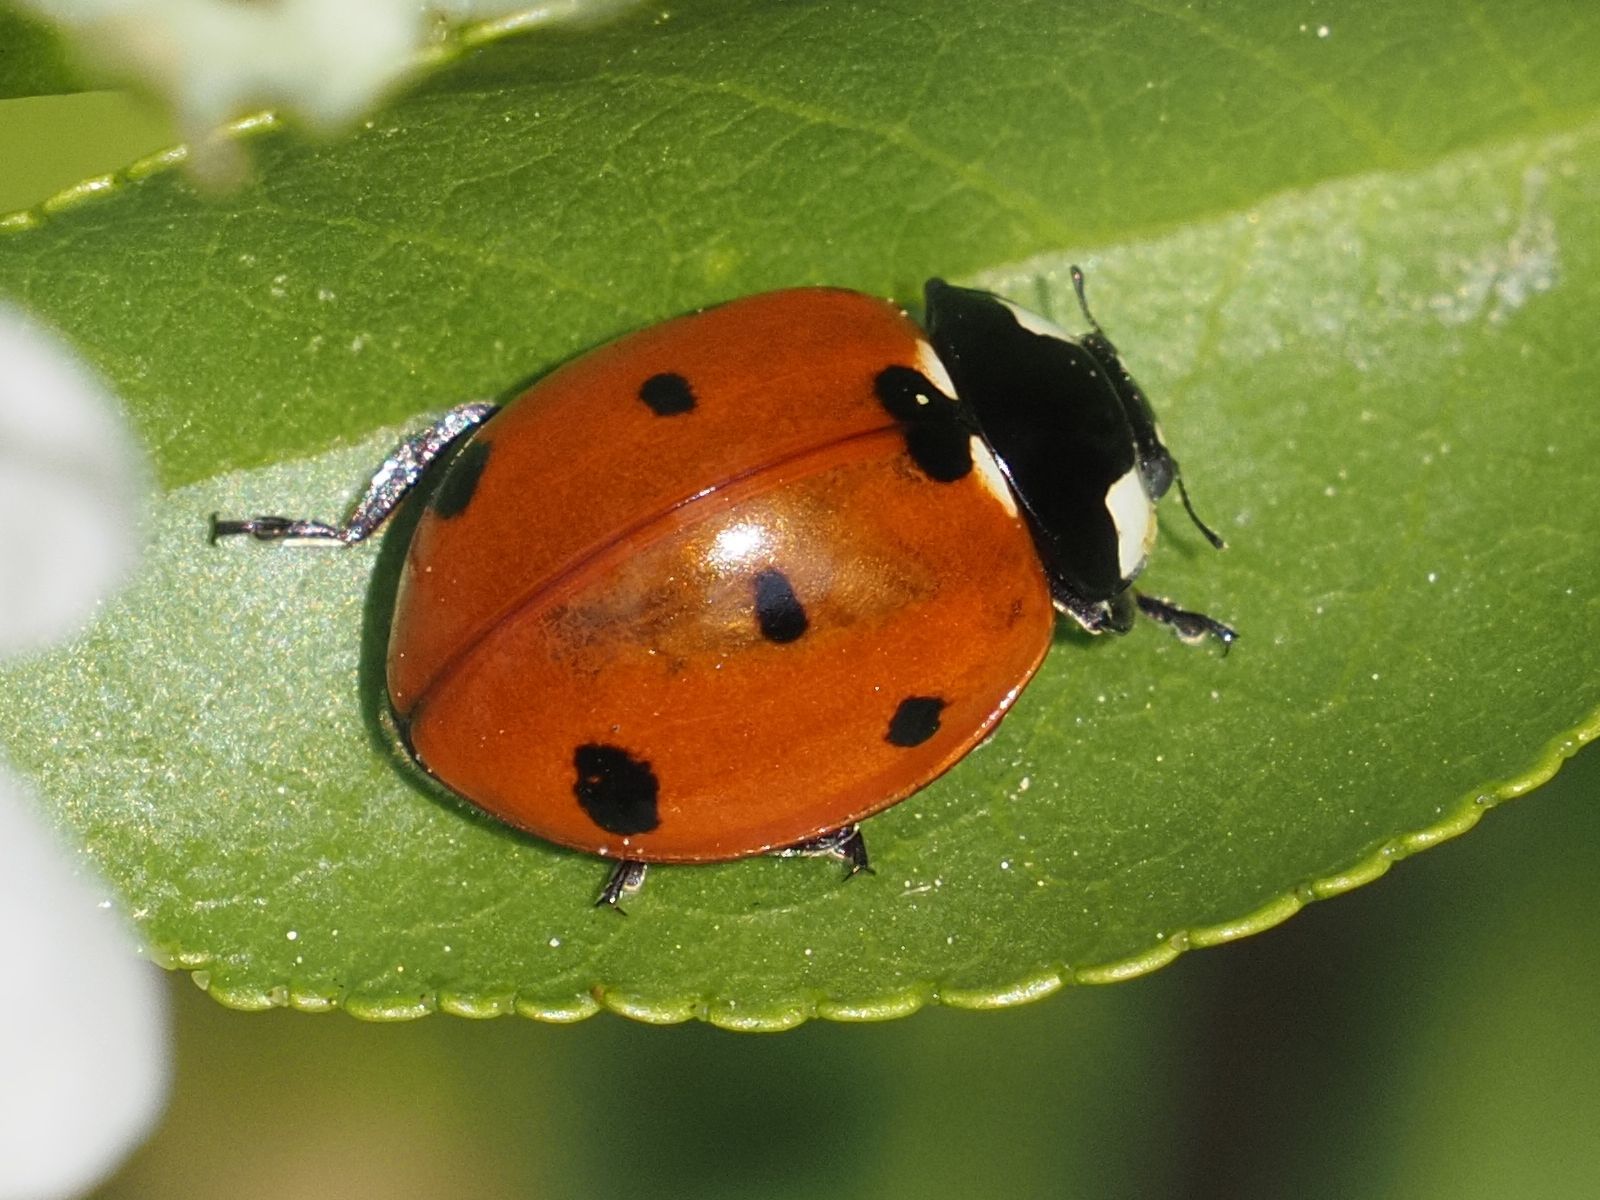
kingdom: Animalia
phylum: Arthropoda
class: Insecta
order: Coleoptera
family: Coccinellidae
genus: Coccinella
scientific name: Coccinella septempunctata
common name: Sevenspotted lady beetle
